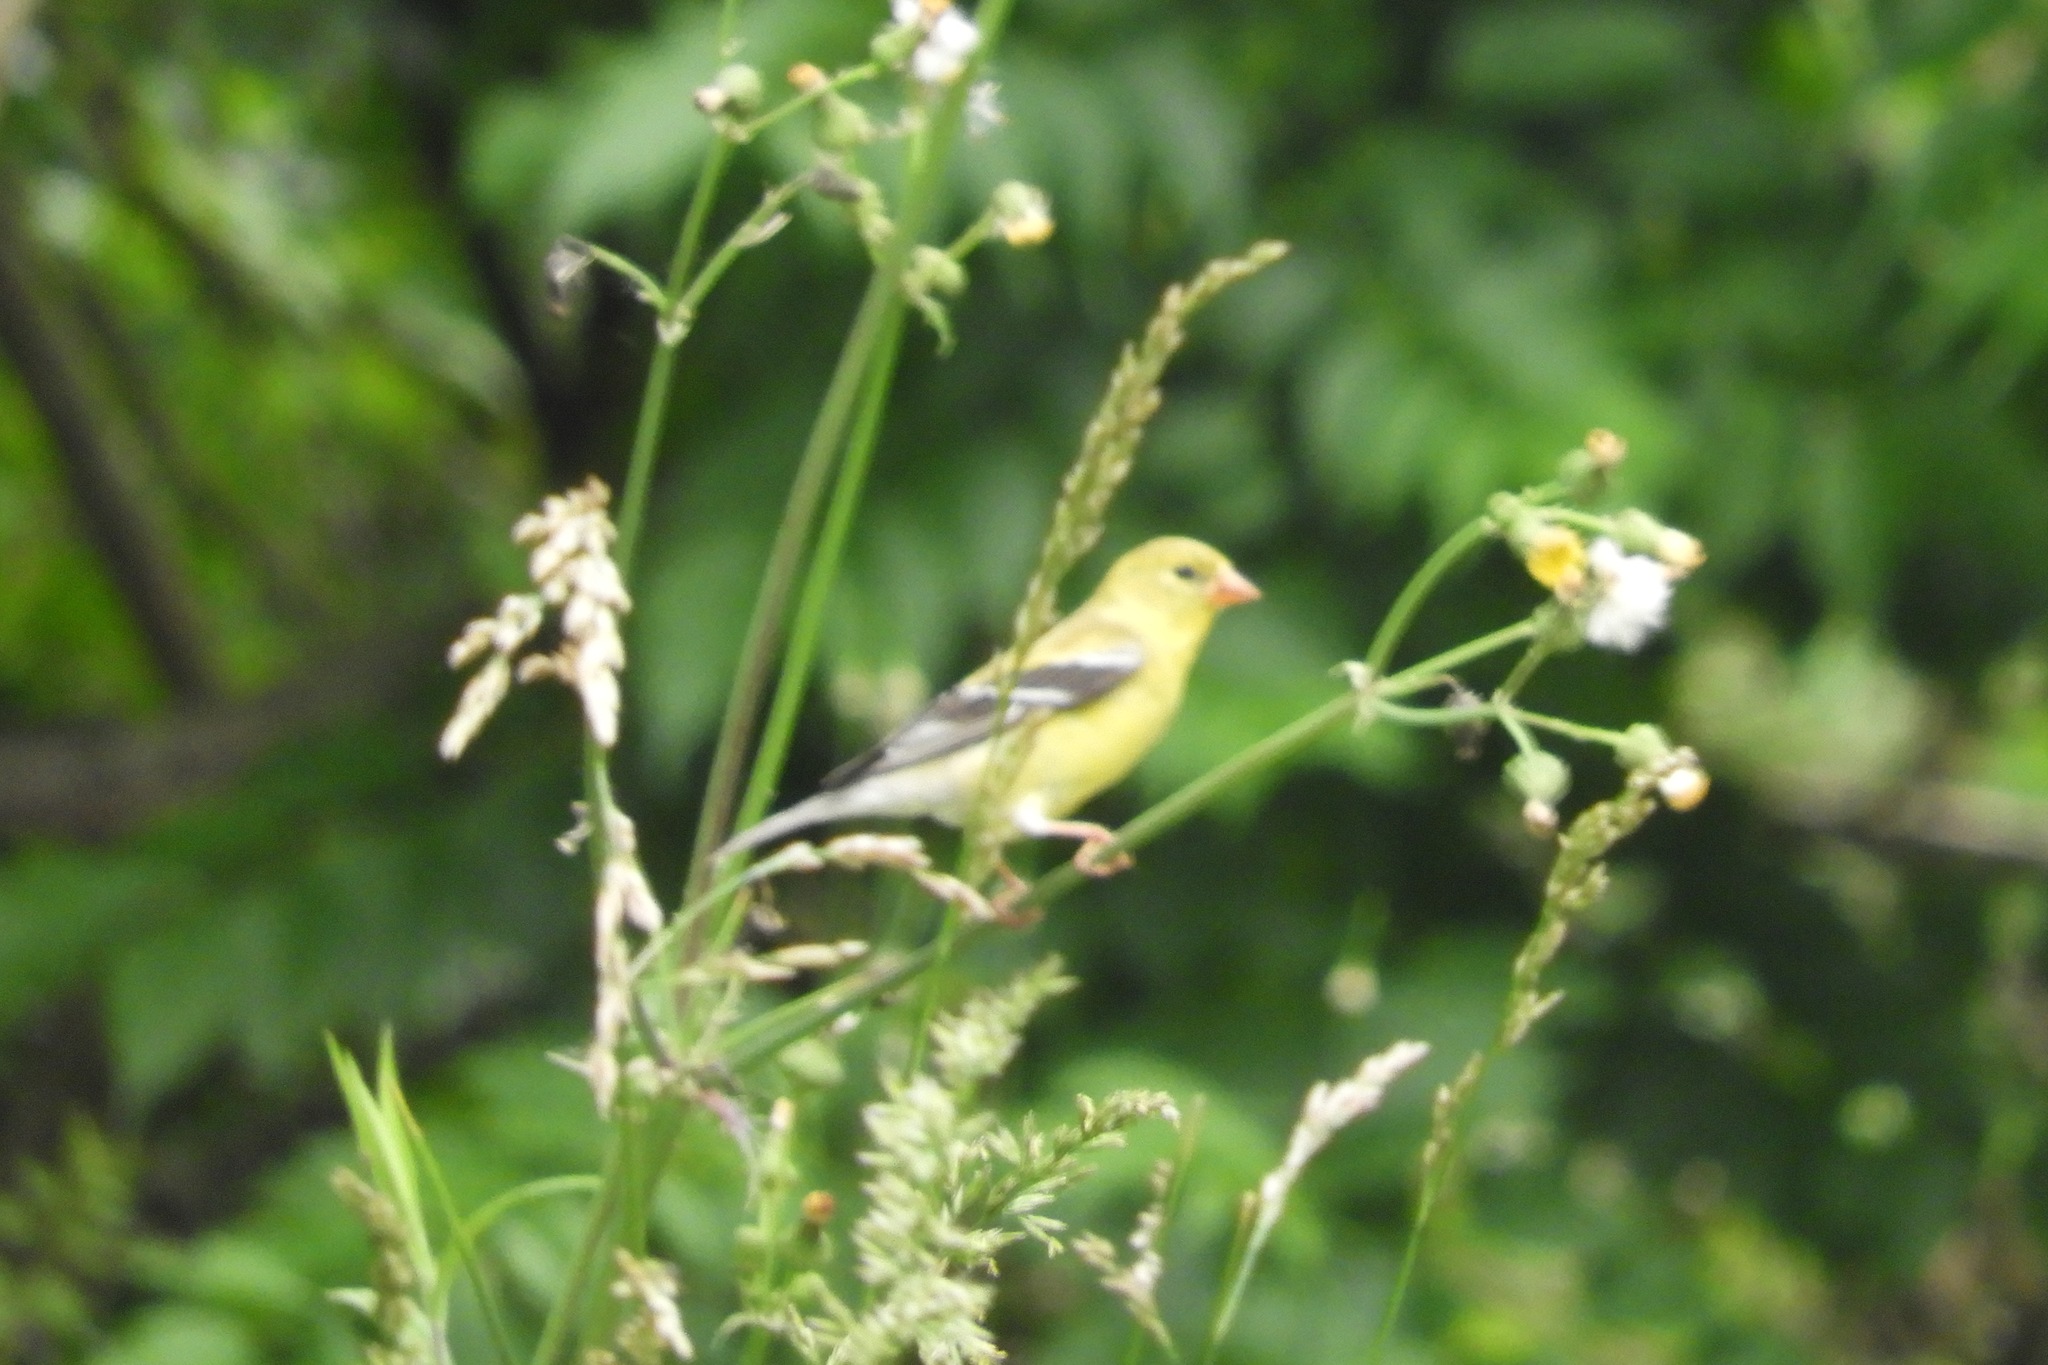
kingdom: Animalia
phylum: Chordata
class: Aves
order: Passeriformes
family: Fringillidae
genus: Spinus
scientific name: Spinus tristis
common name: American goldfinch
